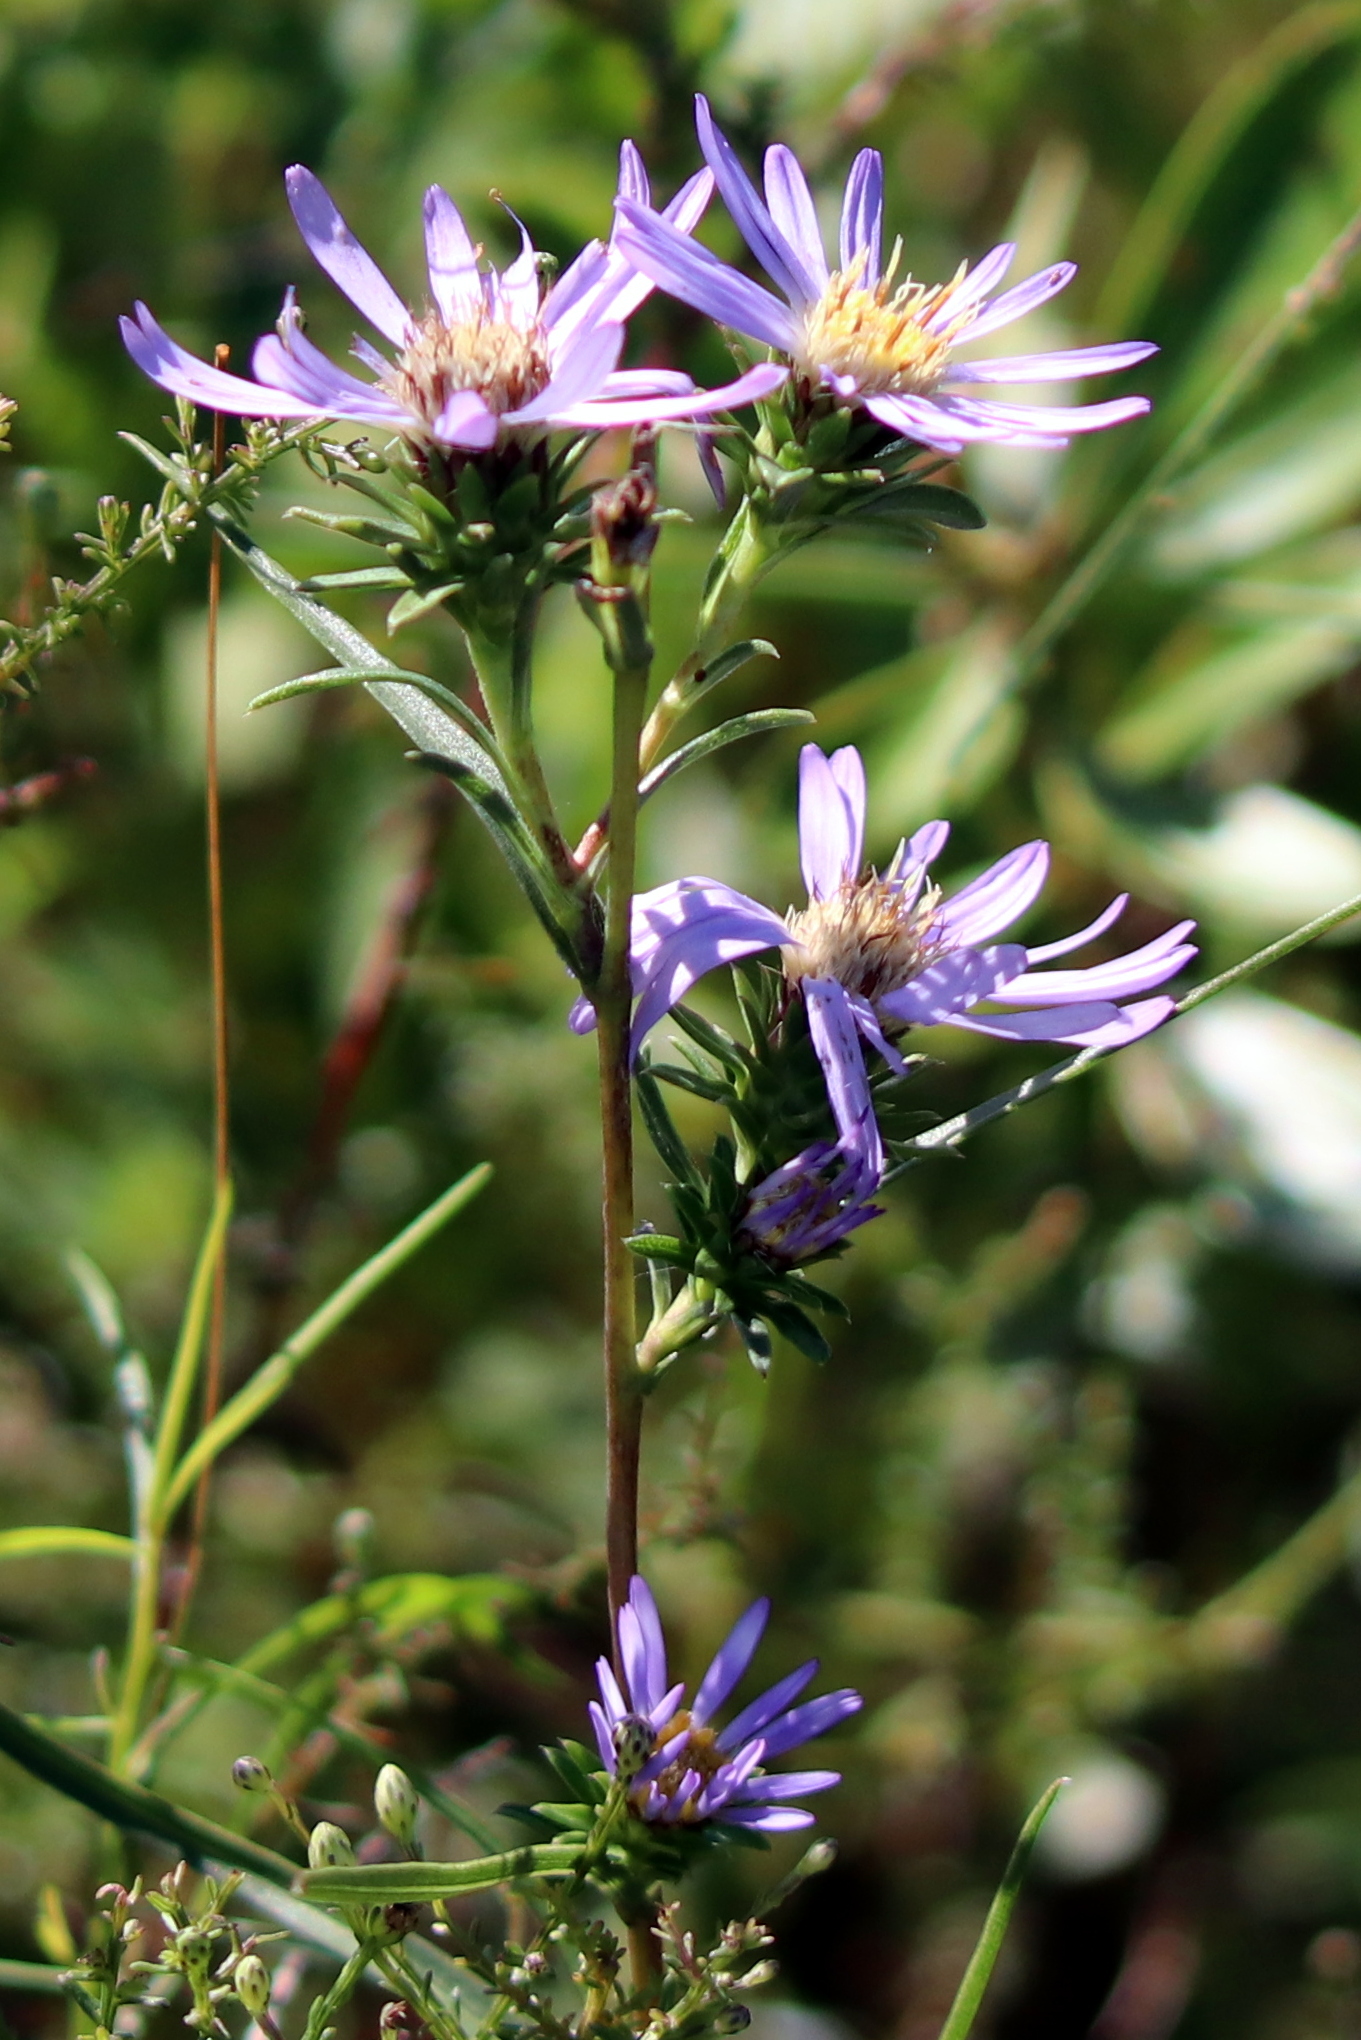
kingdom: Plantae
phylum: Tracheophyta
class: Magnoliopsida
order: Asterales
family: Asteraceae
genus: Eurybia
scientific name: Eurybia hemispherica
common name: Showy aster
